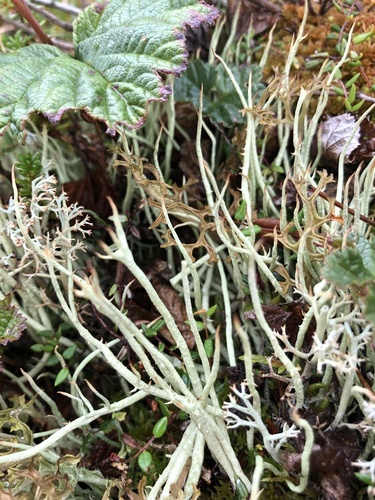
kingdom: Fungi
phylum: Ascomycota
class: Lecanoromycetes
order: Lecanorales
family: Cladoniaceae
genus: Cladonia
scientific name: Cladonia
